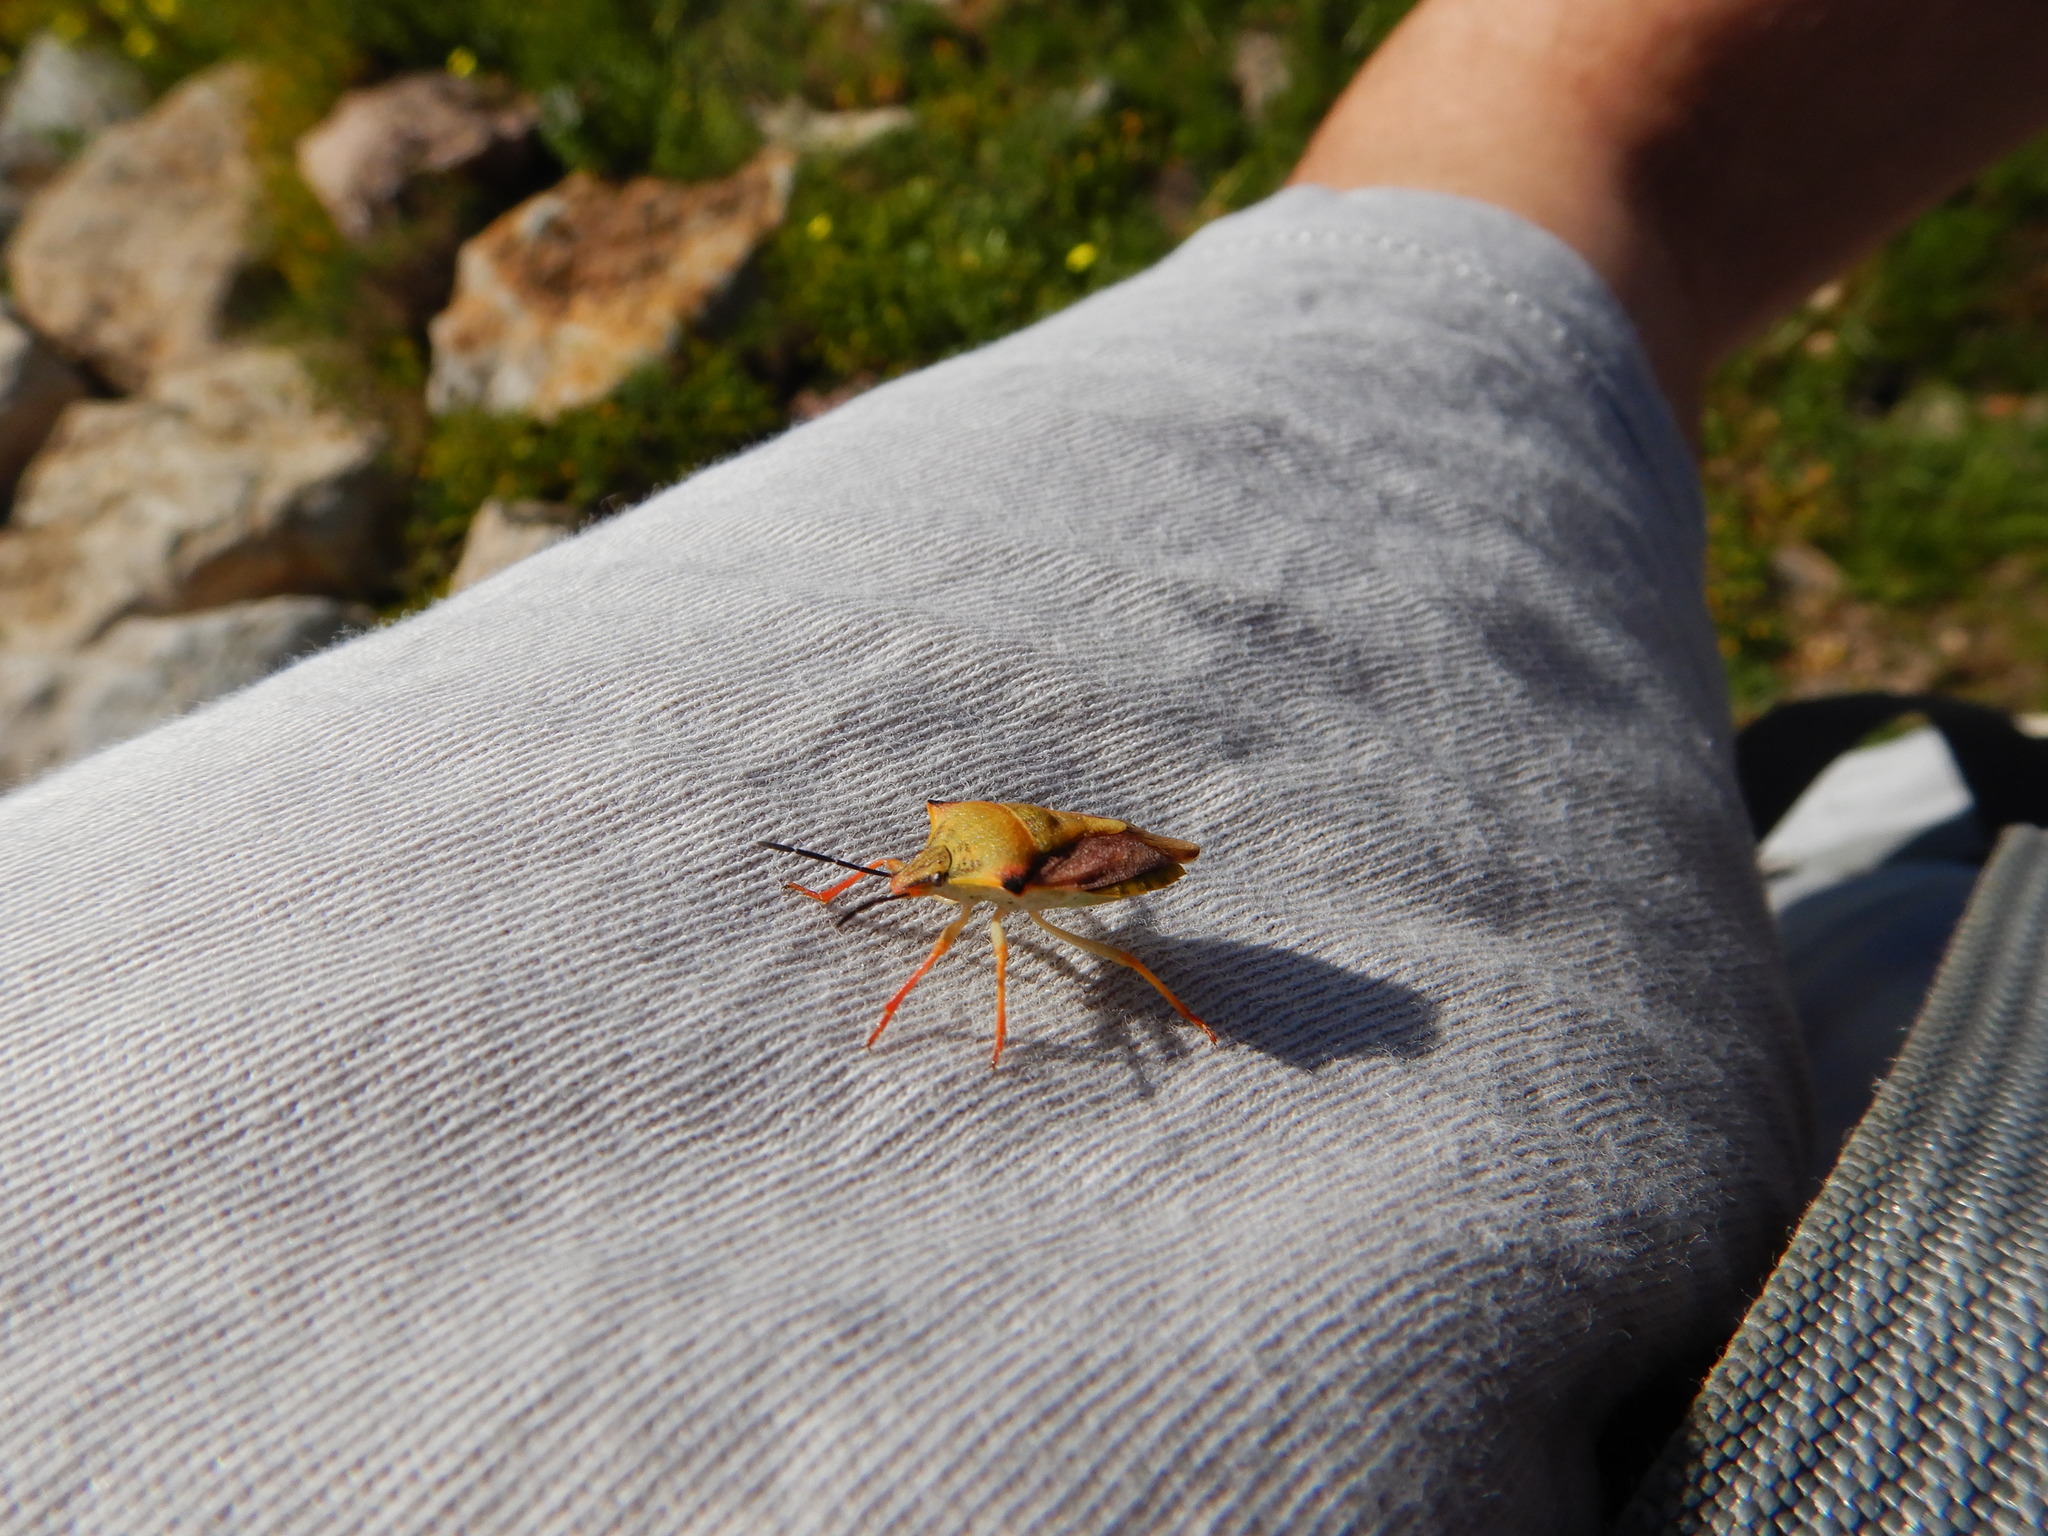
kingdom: Animalia
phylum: Arthropoda
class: Insecta
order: Hemiptera
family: Pentatomidae
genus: Carpocoris
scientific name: Carpocoris mediterraneus
